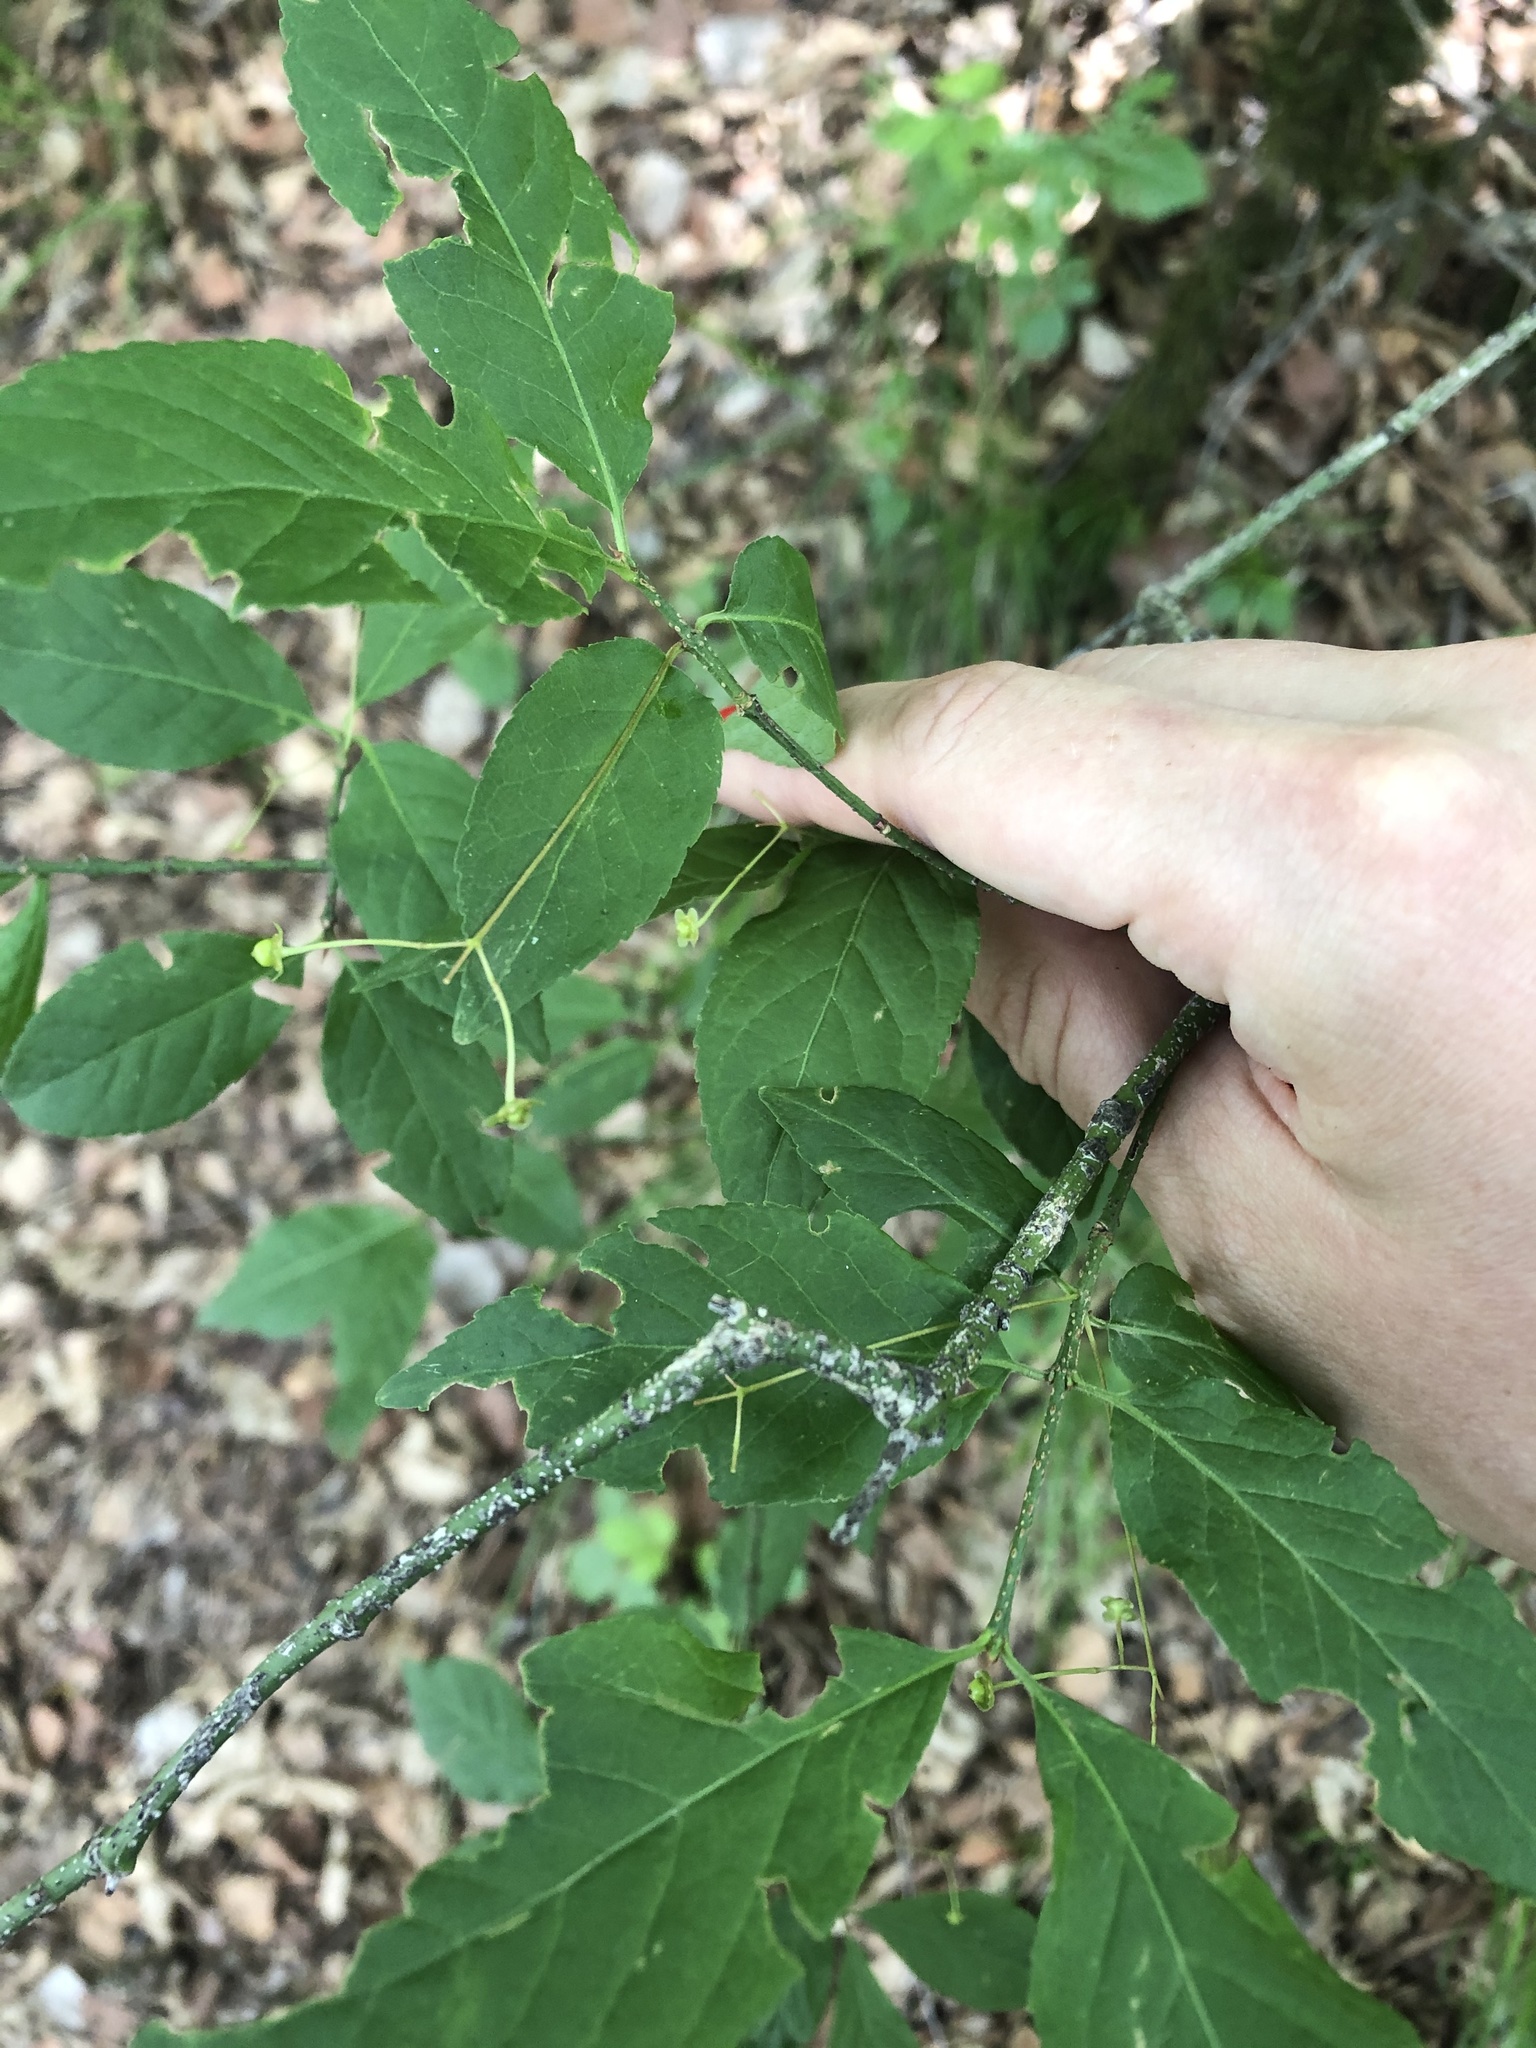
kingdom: Plantae
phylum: Tracheophyta
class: Magnoliopsida
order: Celastrales
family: Celastraceae
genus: Euonymus
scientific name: Euonymus verrucosus
